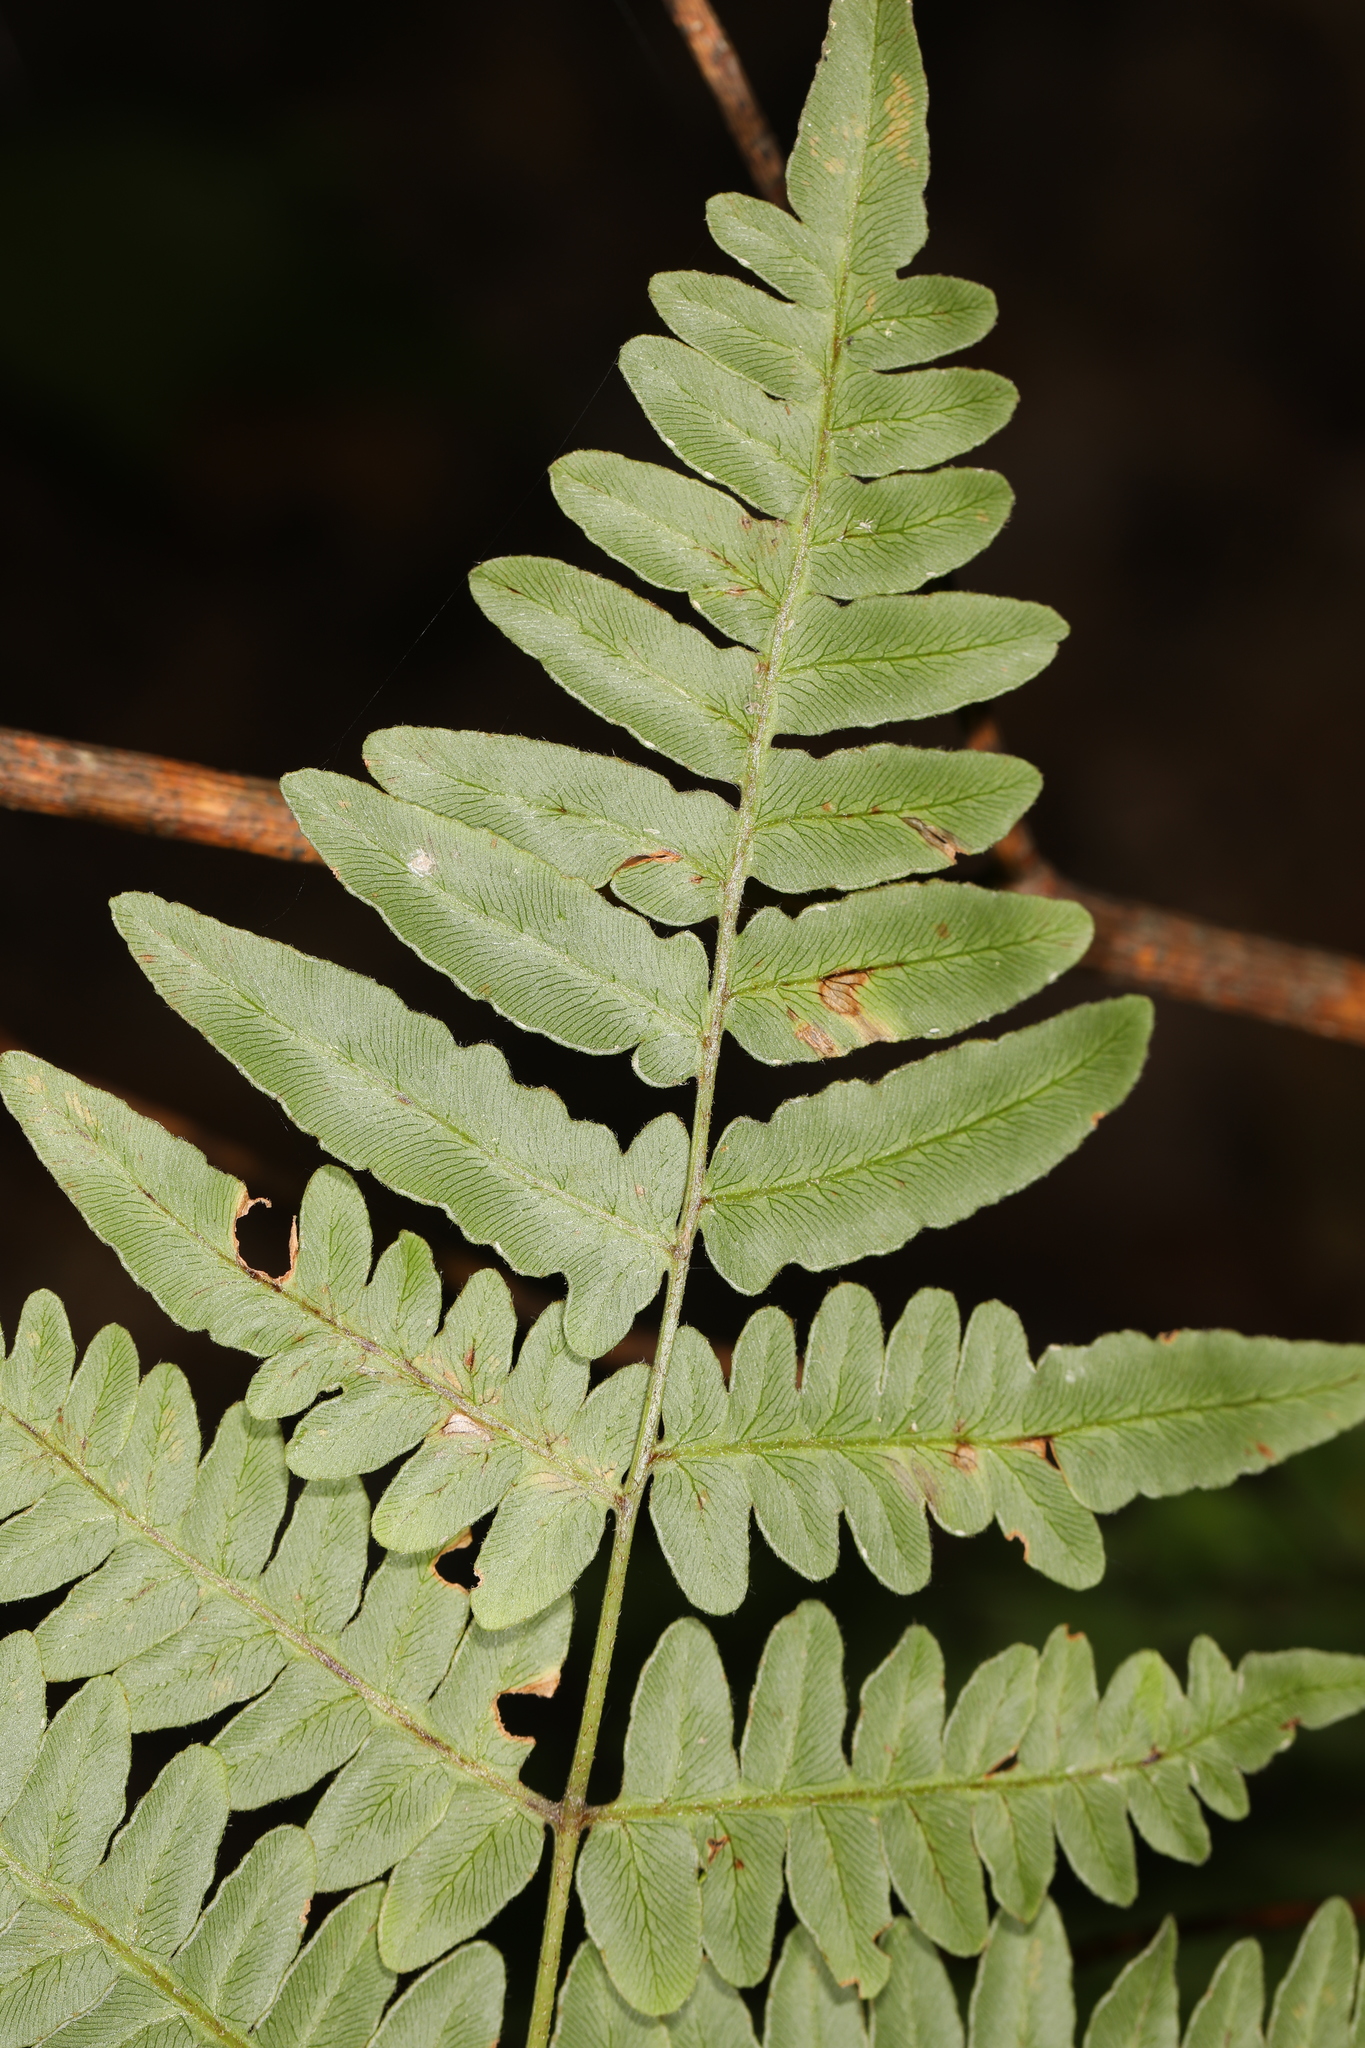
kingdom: Plantae
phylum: Tracheophyta
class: Polypodiopsida
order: Polypodiales
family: Dennstaedtiaceae
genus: Pteridium
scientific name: Pteridium aquilinum
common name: Bracken
